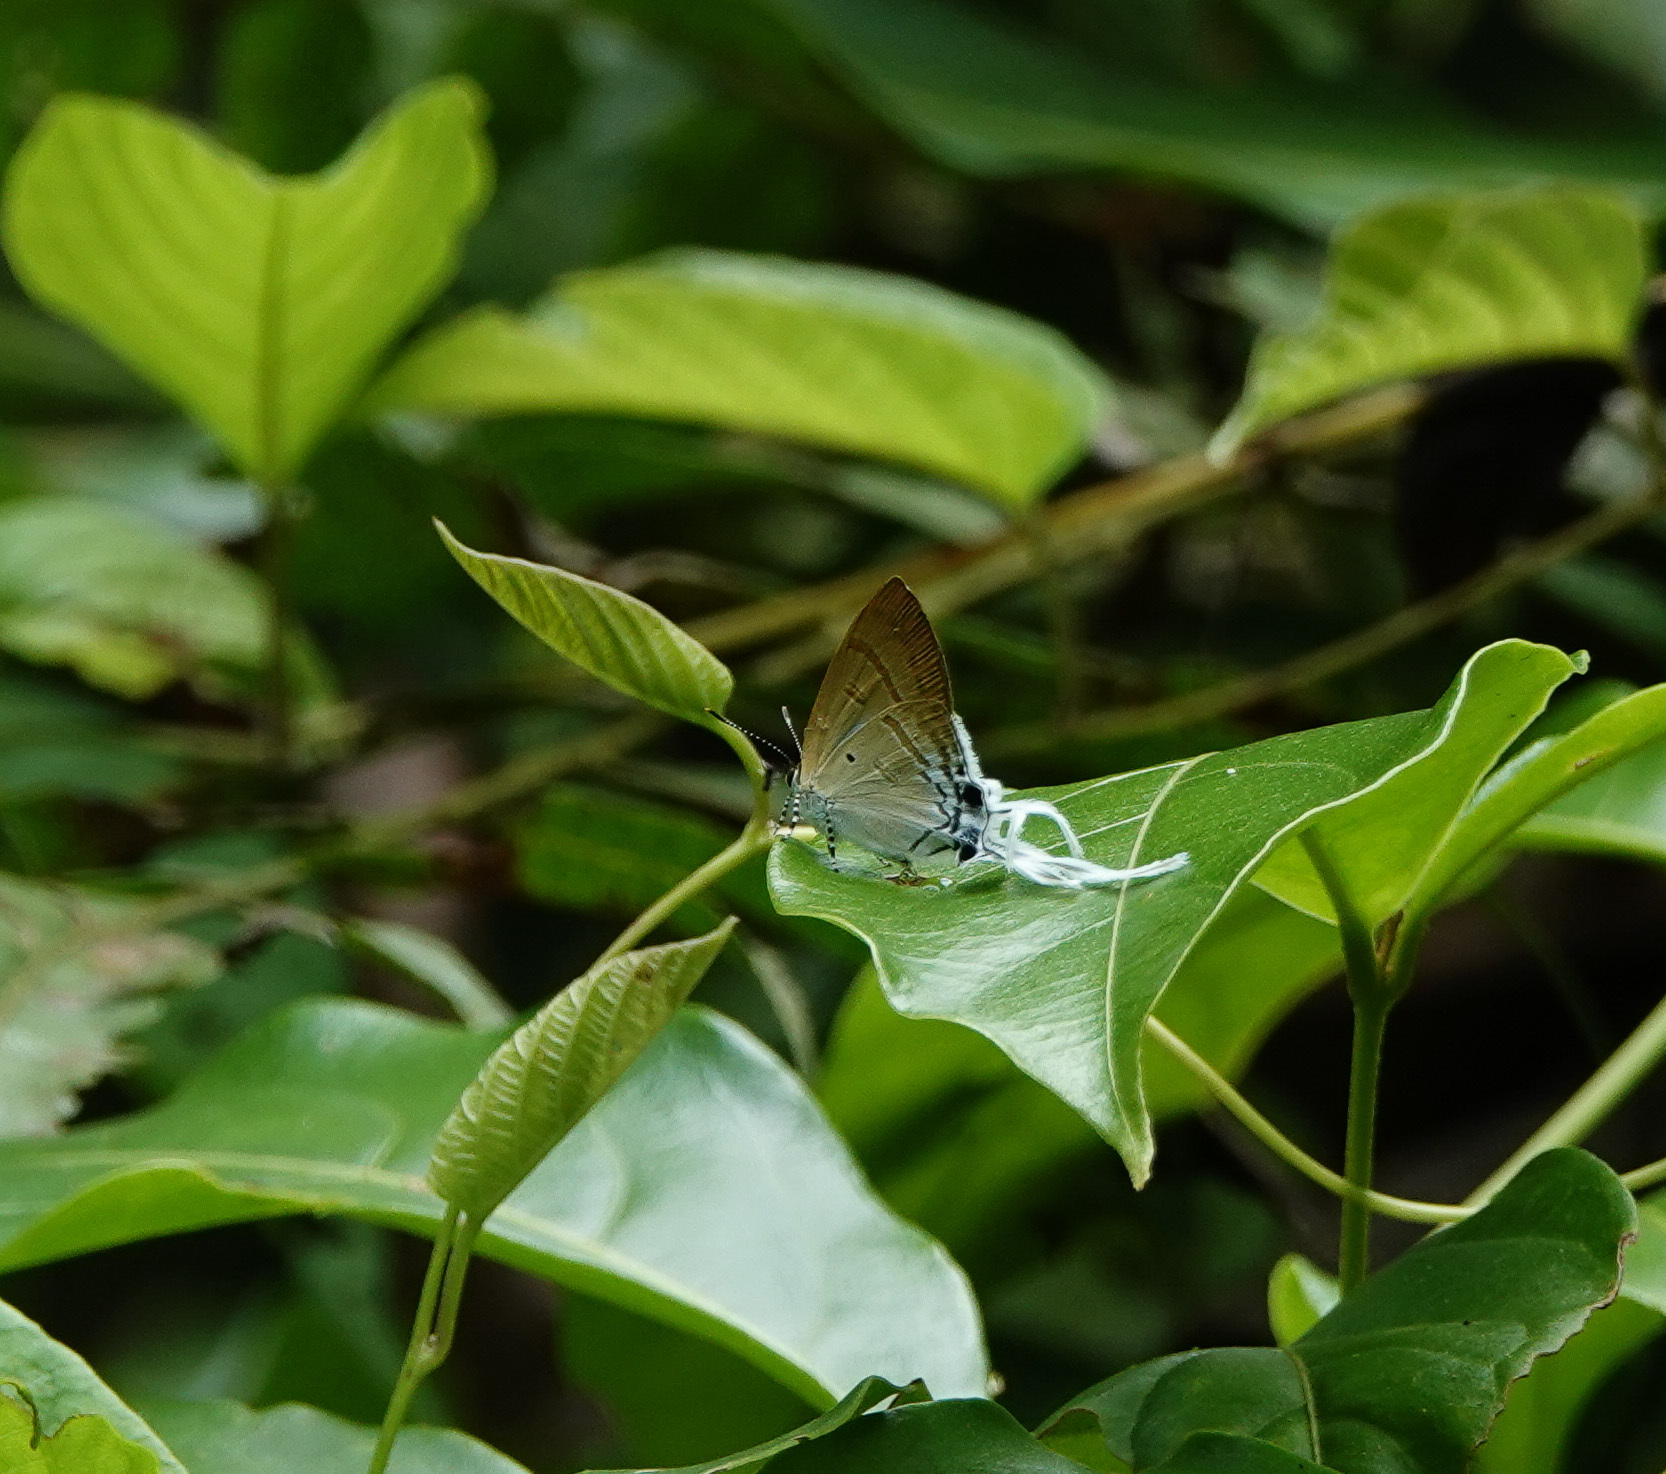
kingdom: Animalia
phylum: Arthropoda
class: Insecta
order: Lepidoptera
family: Lycaenidae
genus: Zeltus
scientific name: Zeltus amasa
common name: Fluffy tit
